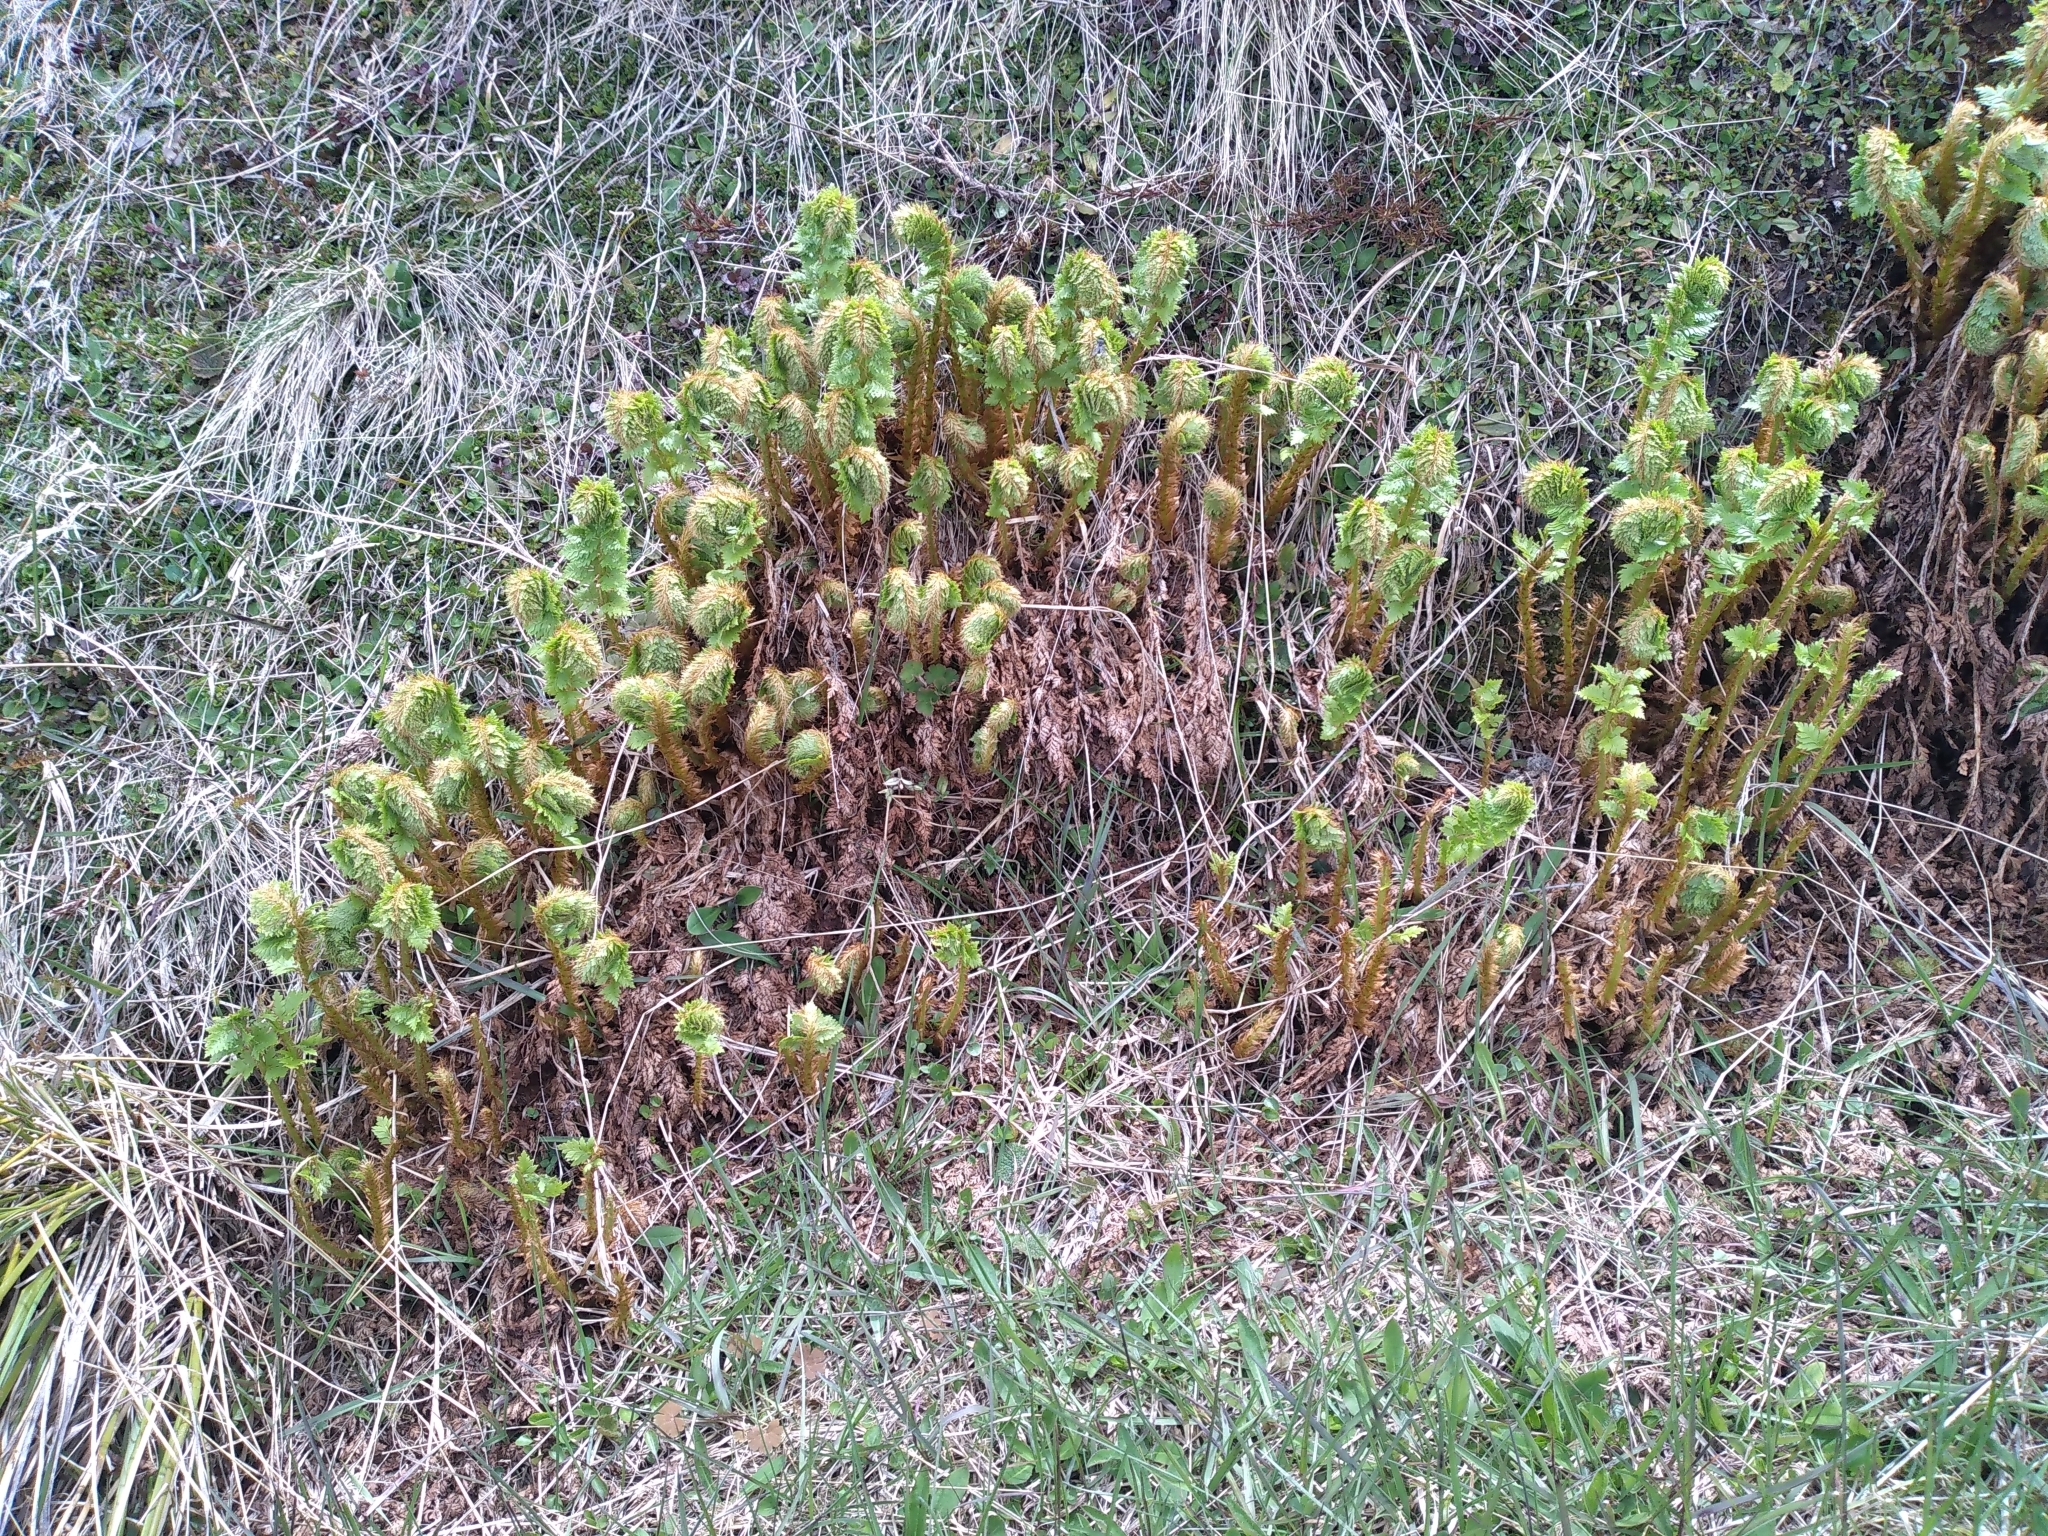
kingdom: Plantae
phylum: Tracheophyta
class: Polypodiopsida
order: Polypodiales
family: Dryopteridaceae
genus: Polystichum
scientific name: Polystichum cystostegia
